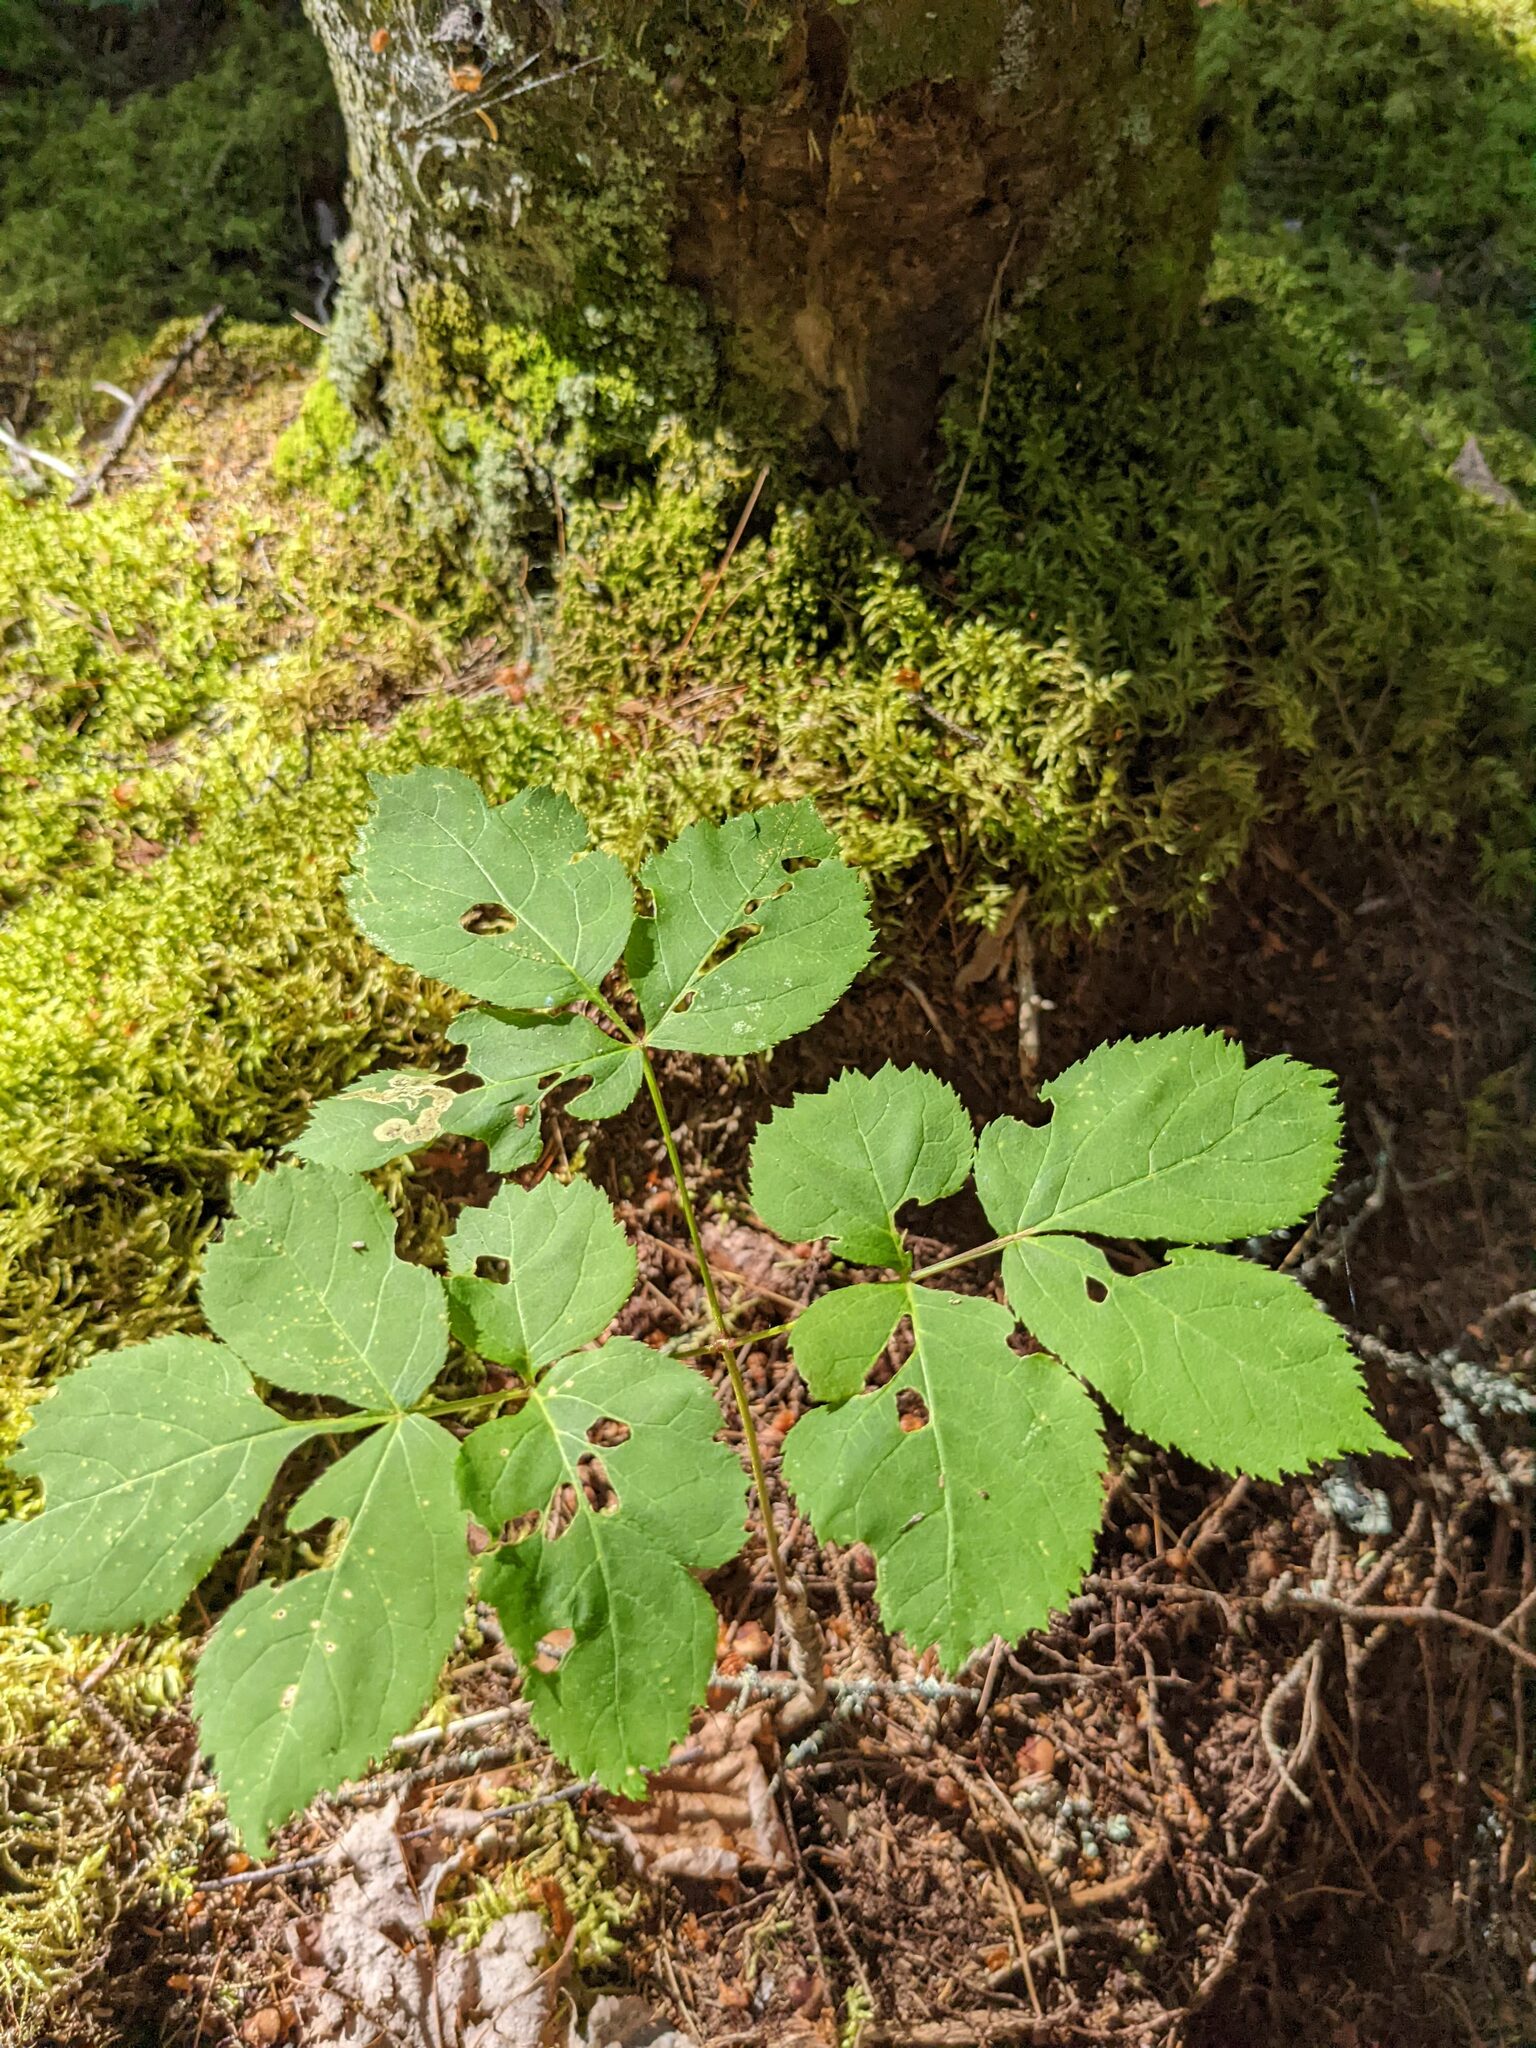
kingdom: Plantae
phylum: Tracheophyta
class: Magnoliopsida
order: Apiales
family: Araliaceae
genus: Aralia
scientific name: Aralia nudicaulis
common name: Wild sarsaparilla
